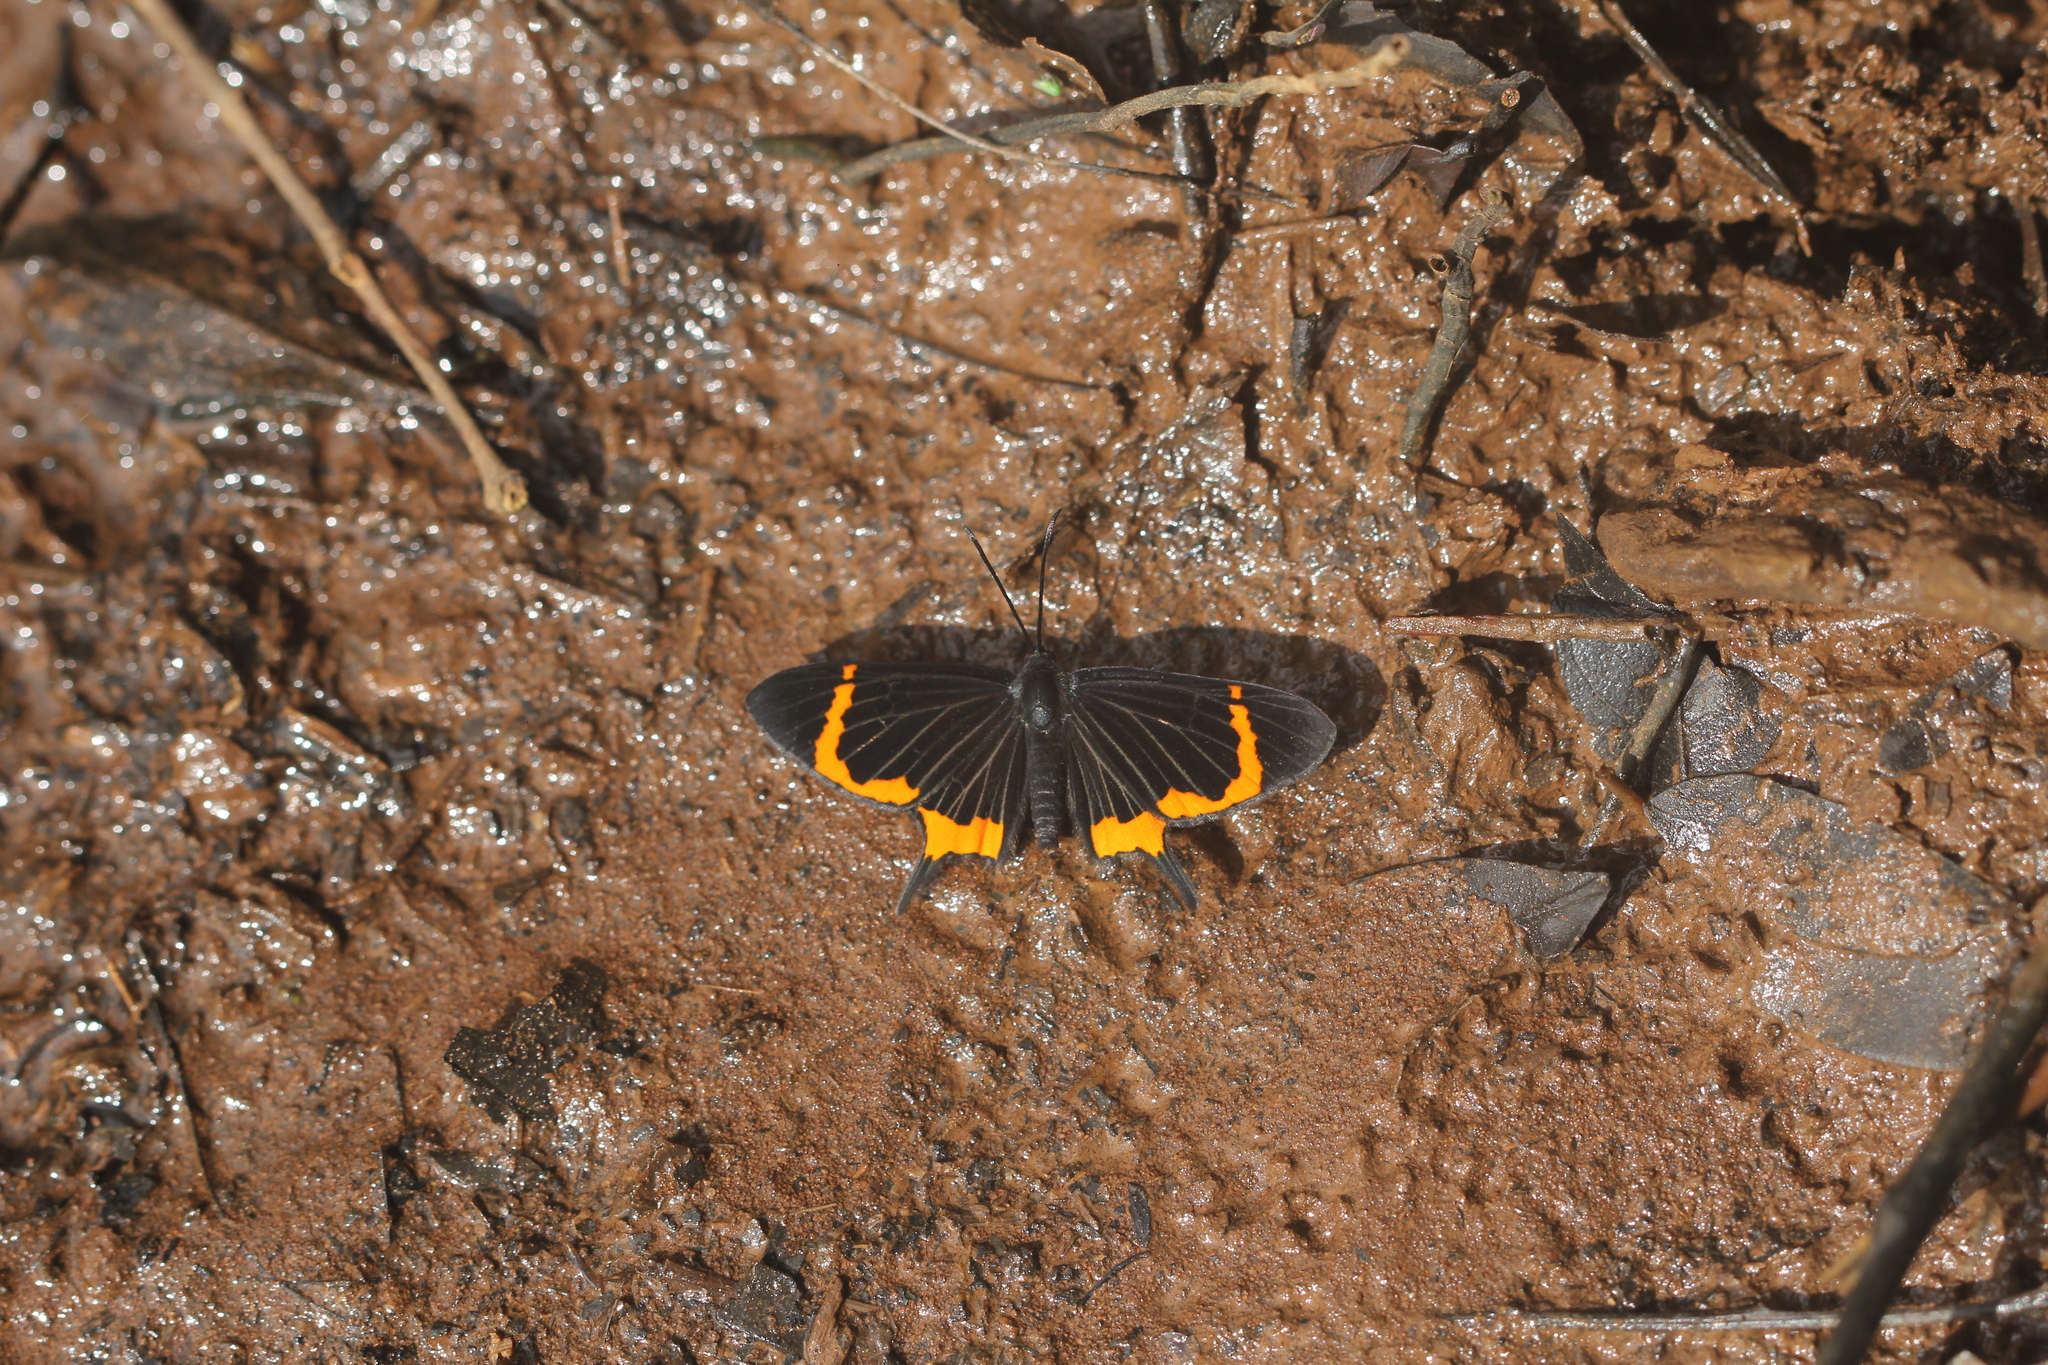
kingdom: Animalia
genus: Barbicornis
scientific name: Barbicornis basilis
